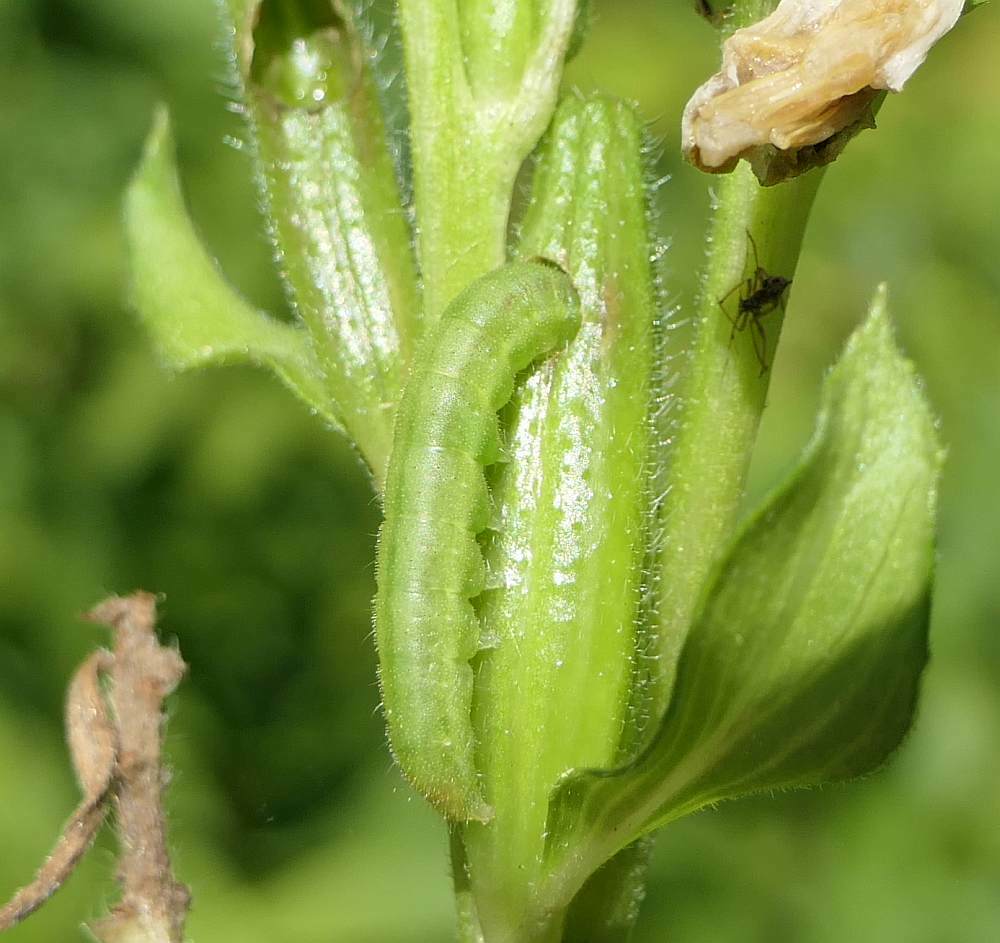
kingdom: Animalia
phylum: Arthropoda
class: Insecta
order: Lepidoptera
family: Noctuidae
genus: Schinia
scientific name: Schinia florida
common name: Primrose moth
